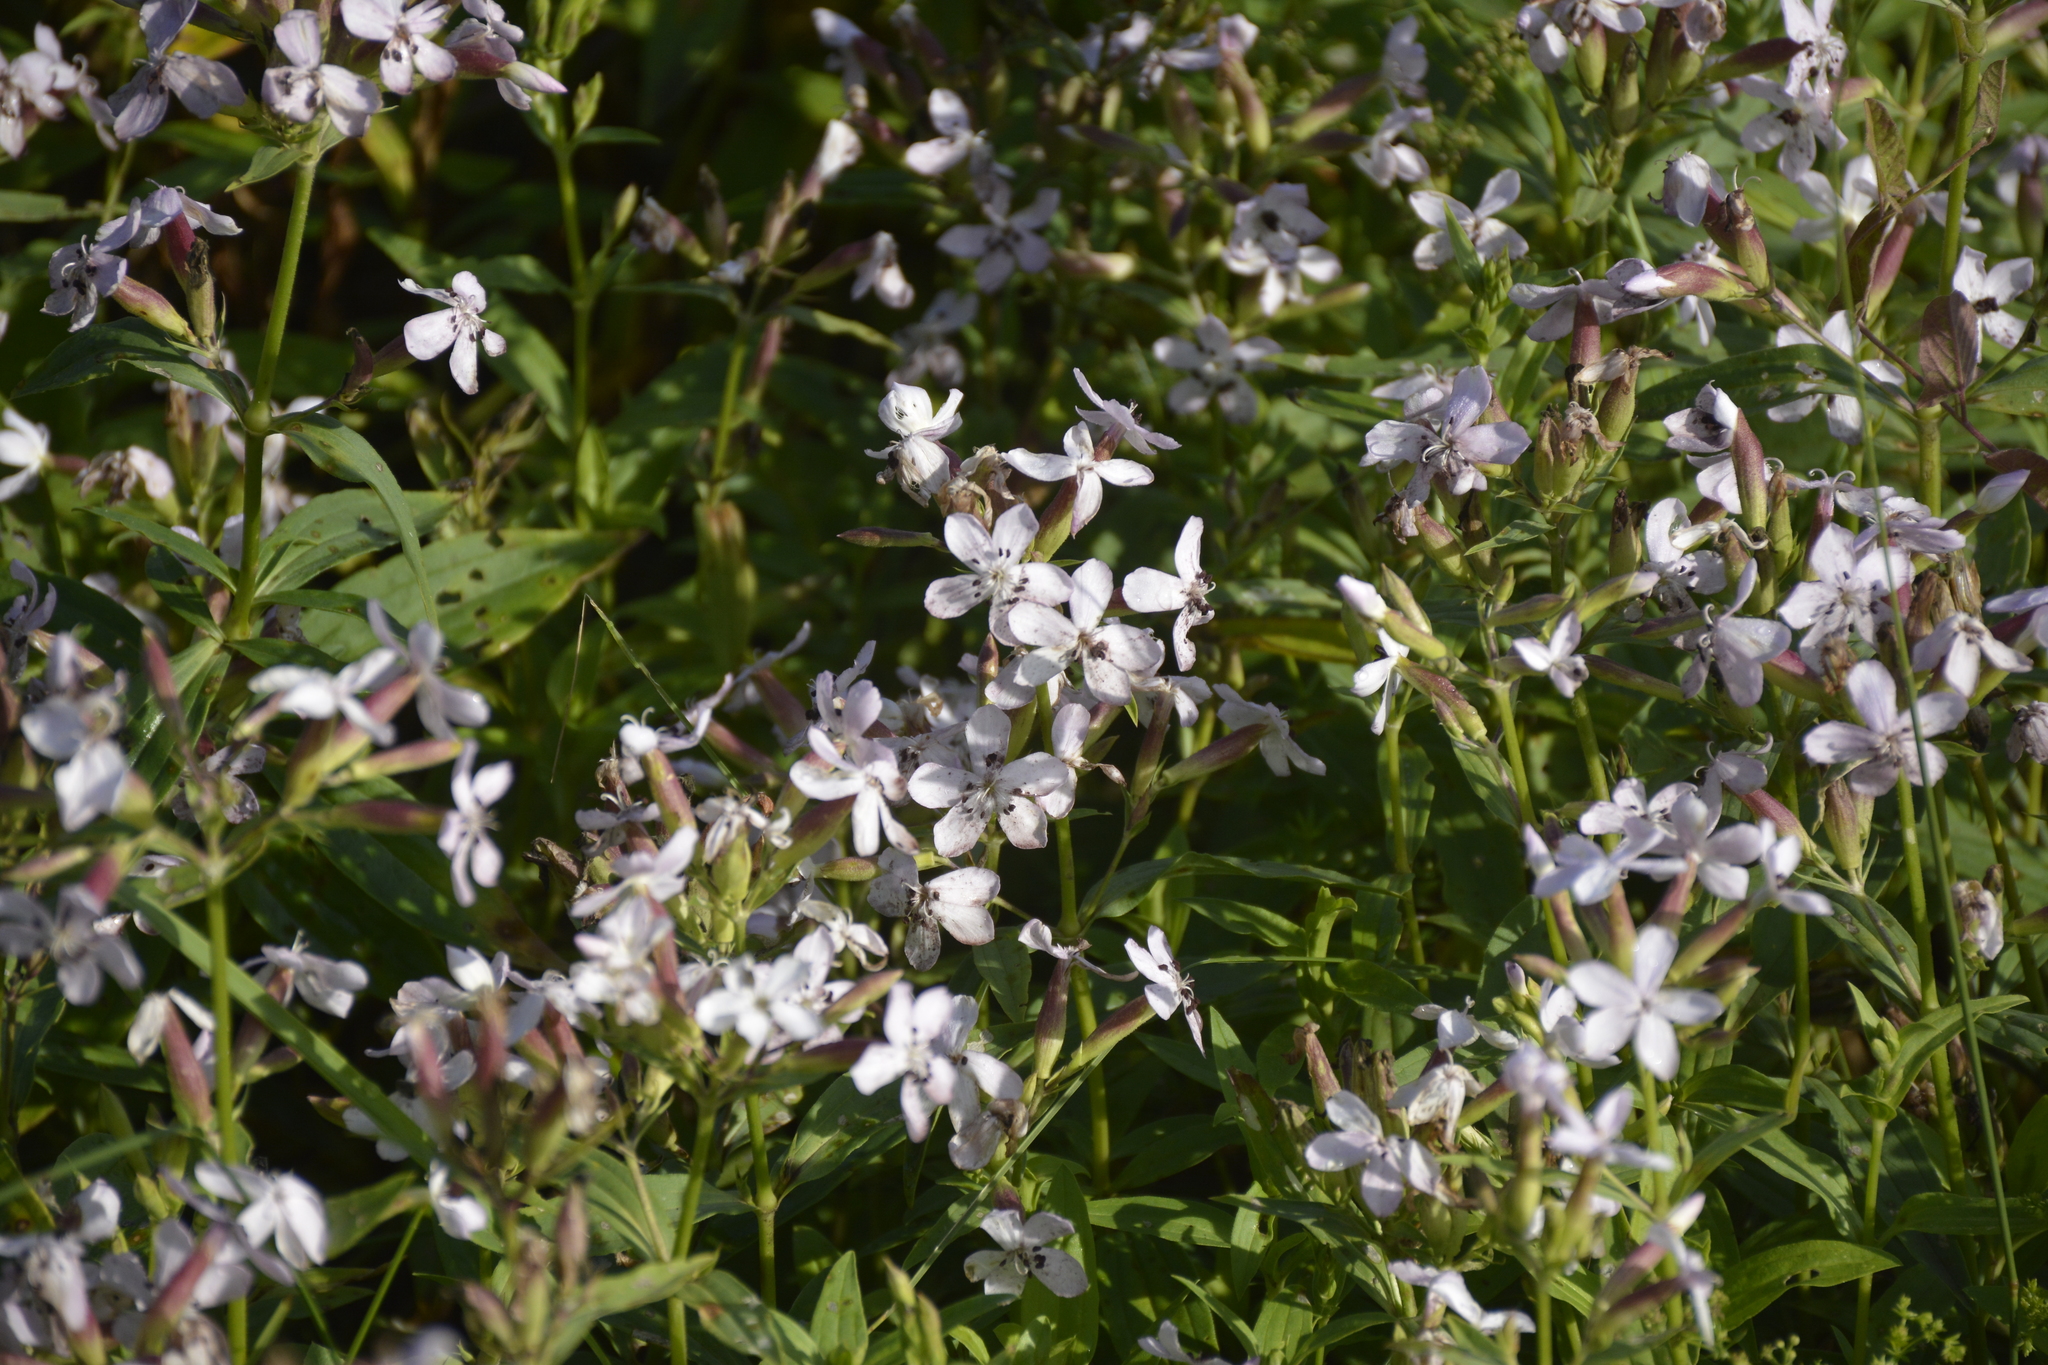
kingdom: Plantae
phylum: Tracheophyta
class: Magnoliopsida
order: Caryophyllales
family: Caryophyllaceae
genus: Saponaria
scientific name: Saponaria officinalis
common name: Soapwort
